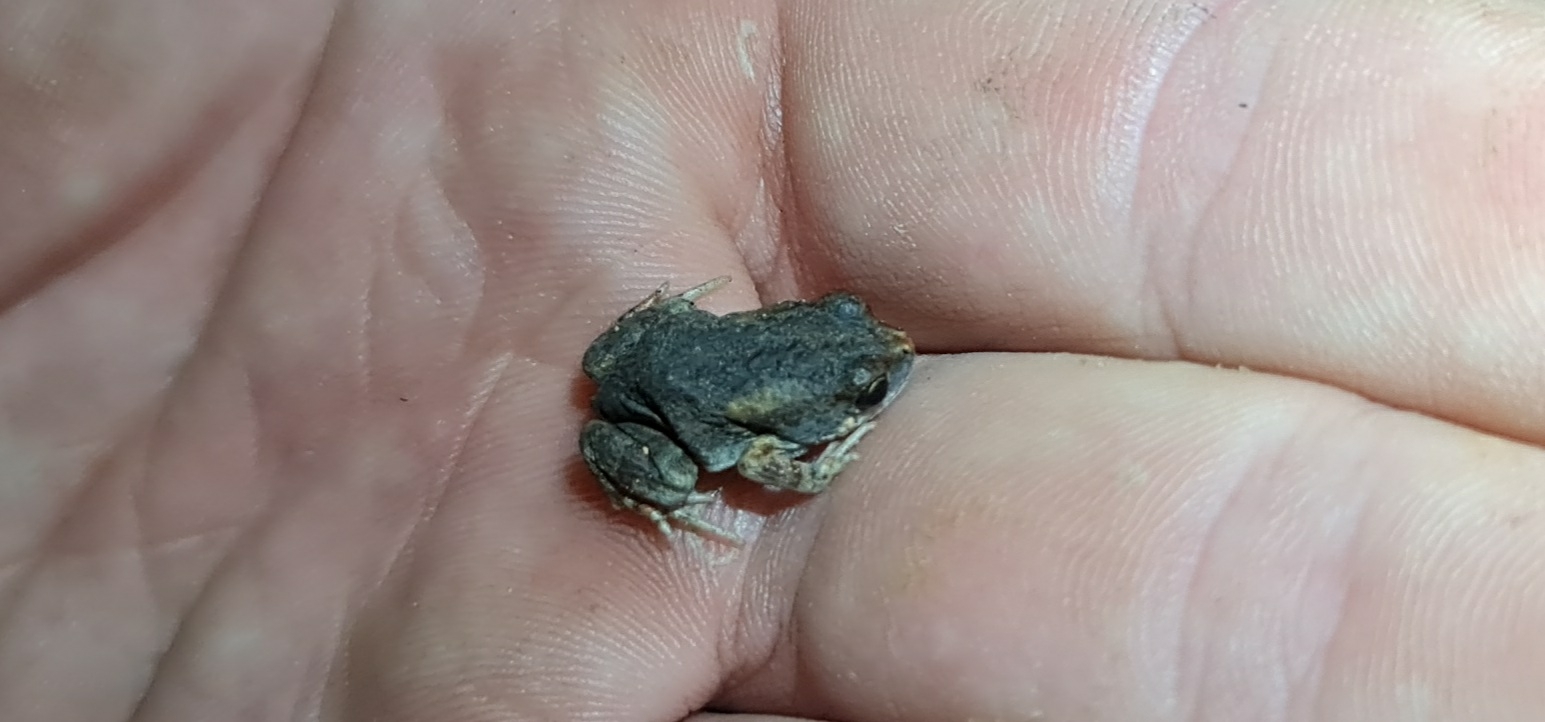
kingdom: Animalia
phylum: Chordata
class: Amphibia
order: Anura
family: Myobatrachidae
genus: Uperoleia
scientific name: Uperoleia crassa
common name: Fat toadlet
